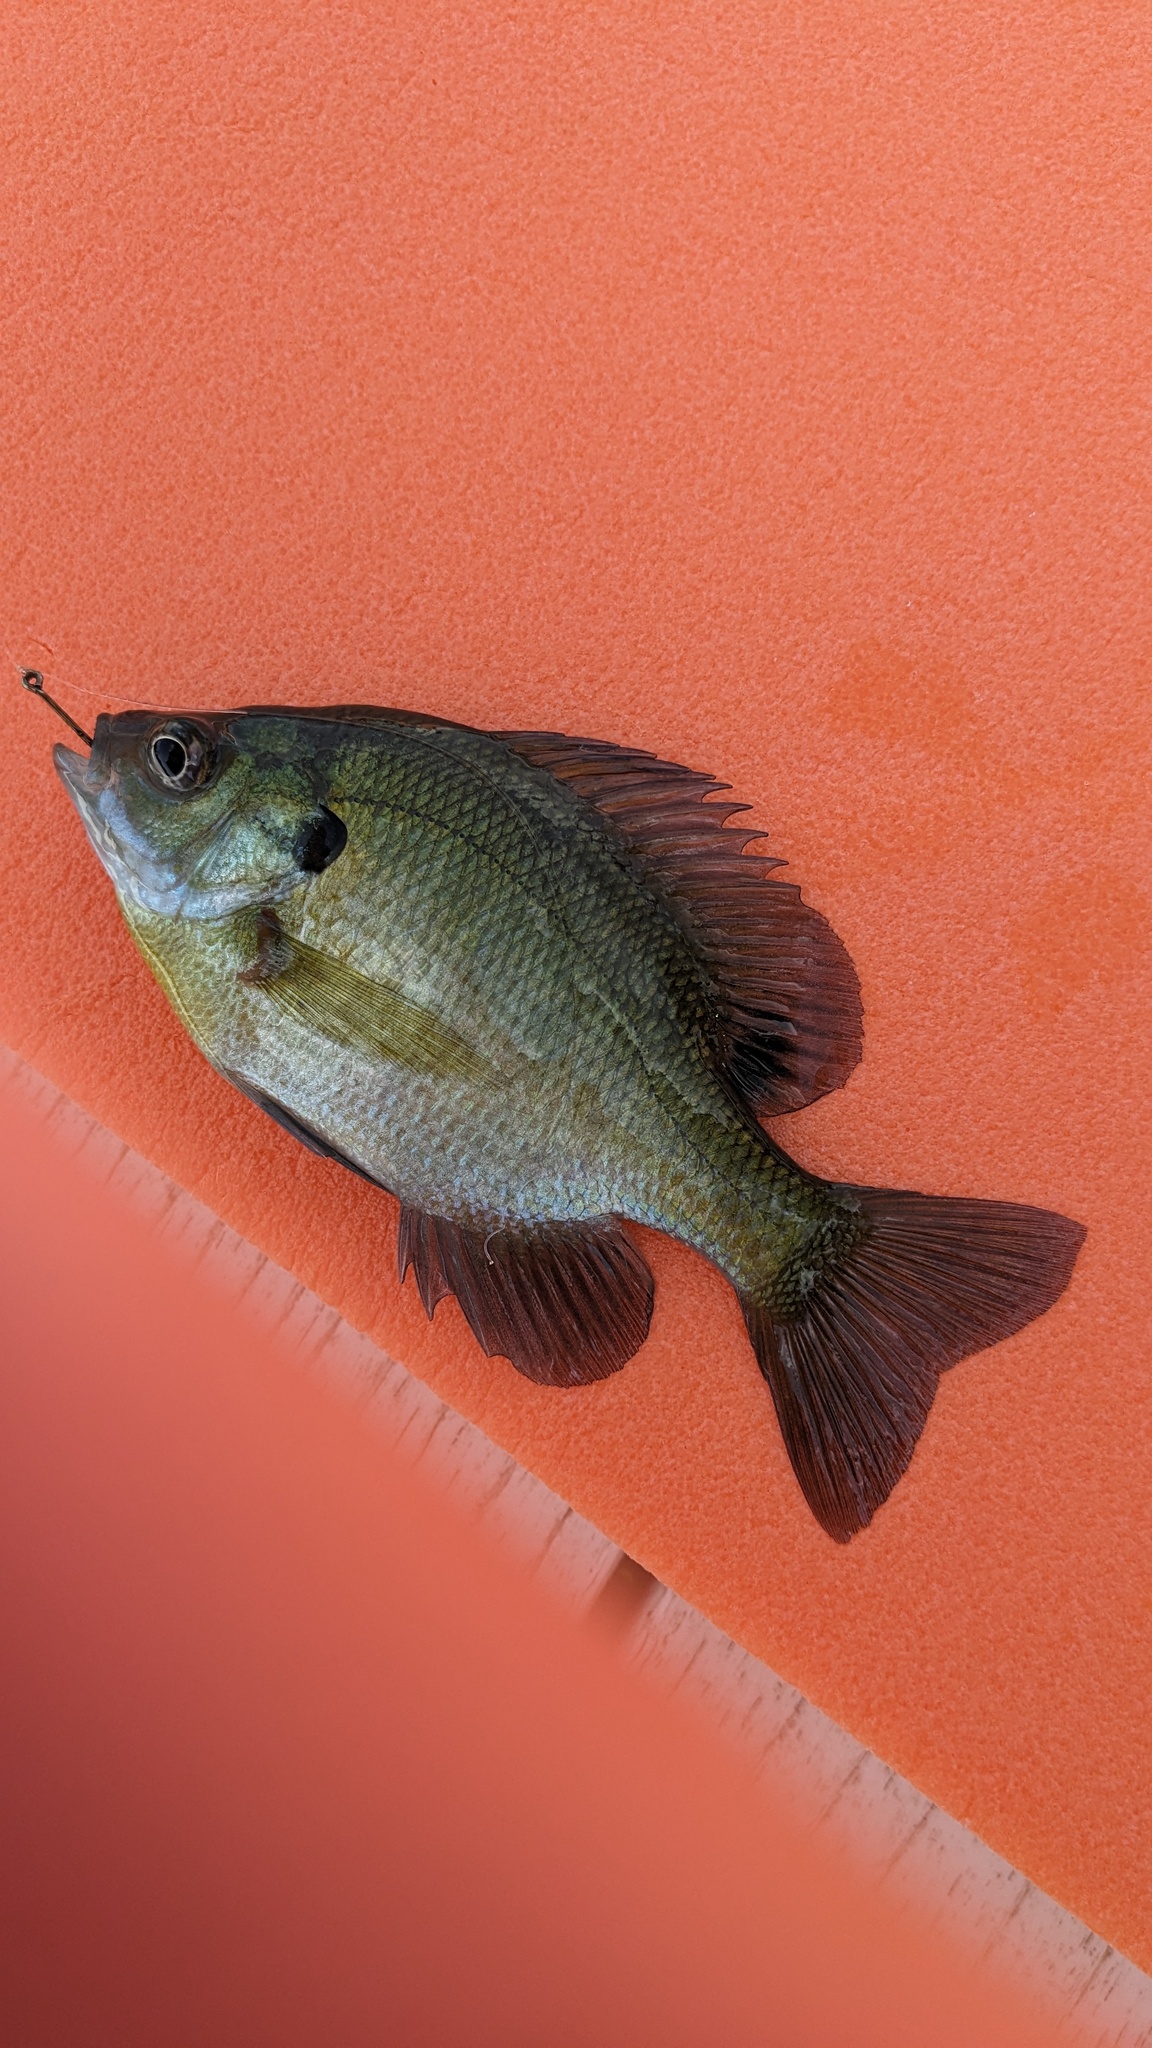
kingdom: Animalia
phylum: Chordata
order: Perciformes
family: Centrarchidae
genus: Lepomis
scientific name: Lepomis macrochirus
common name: Bluegill
